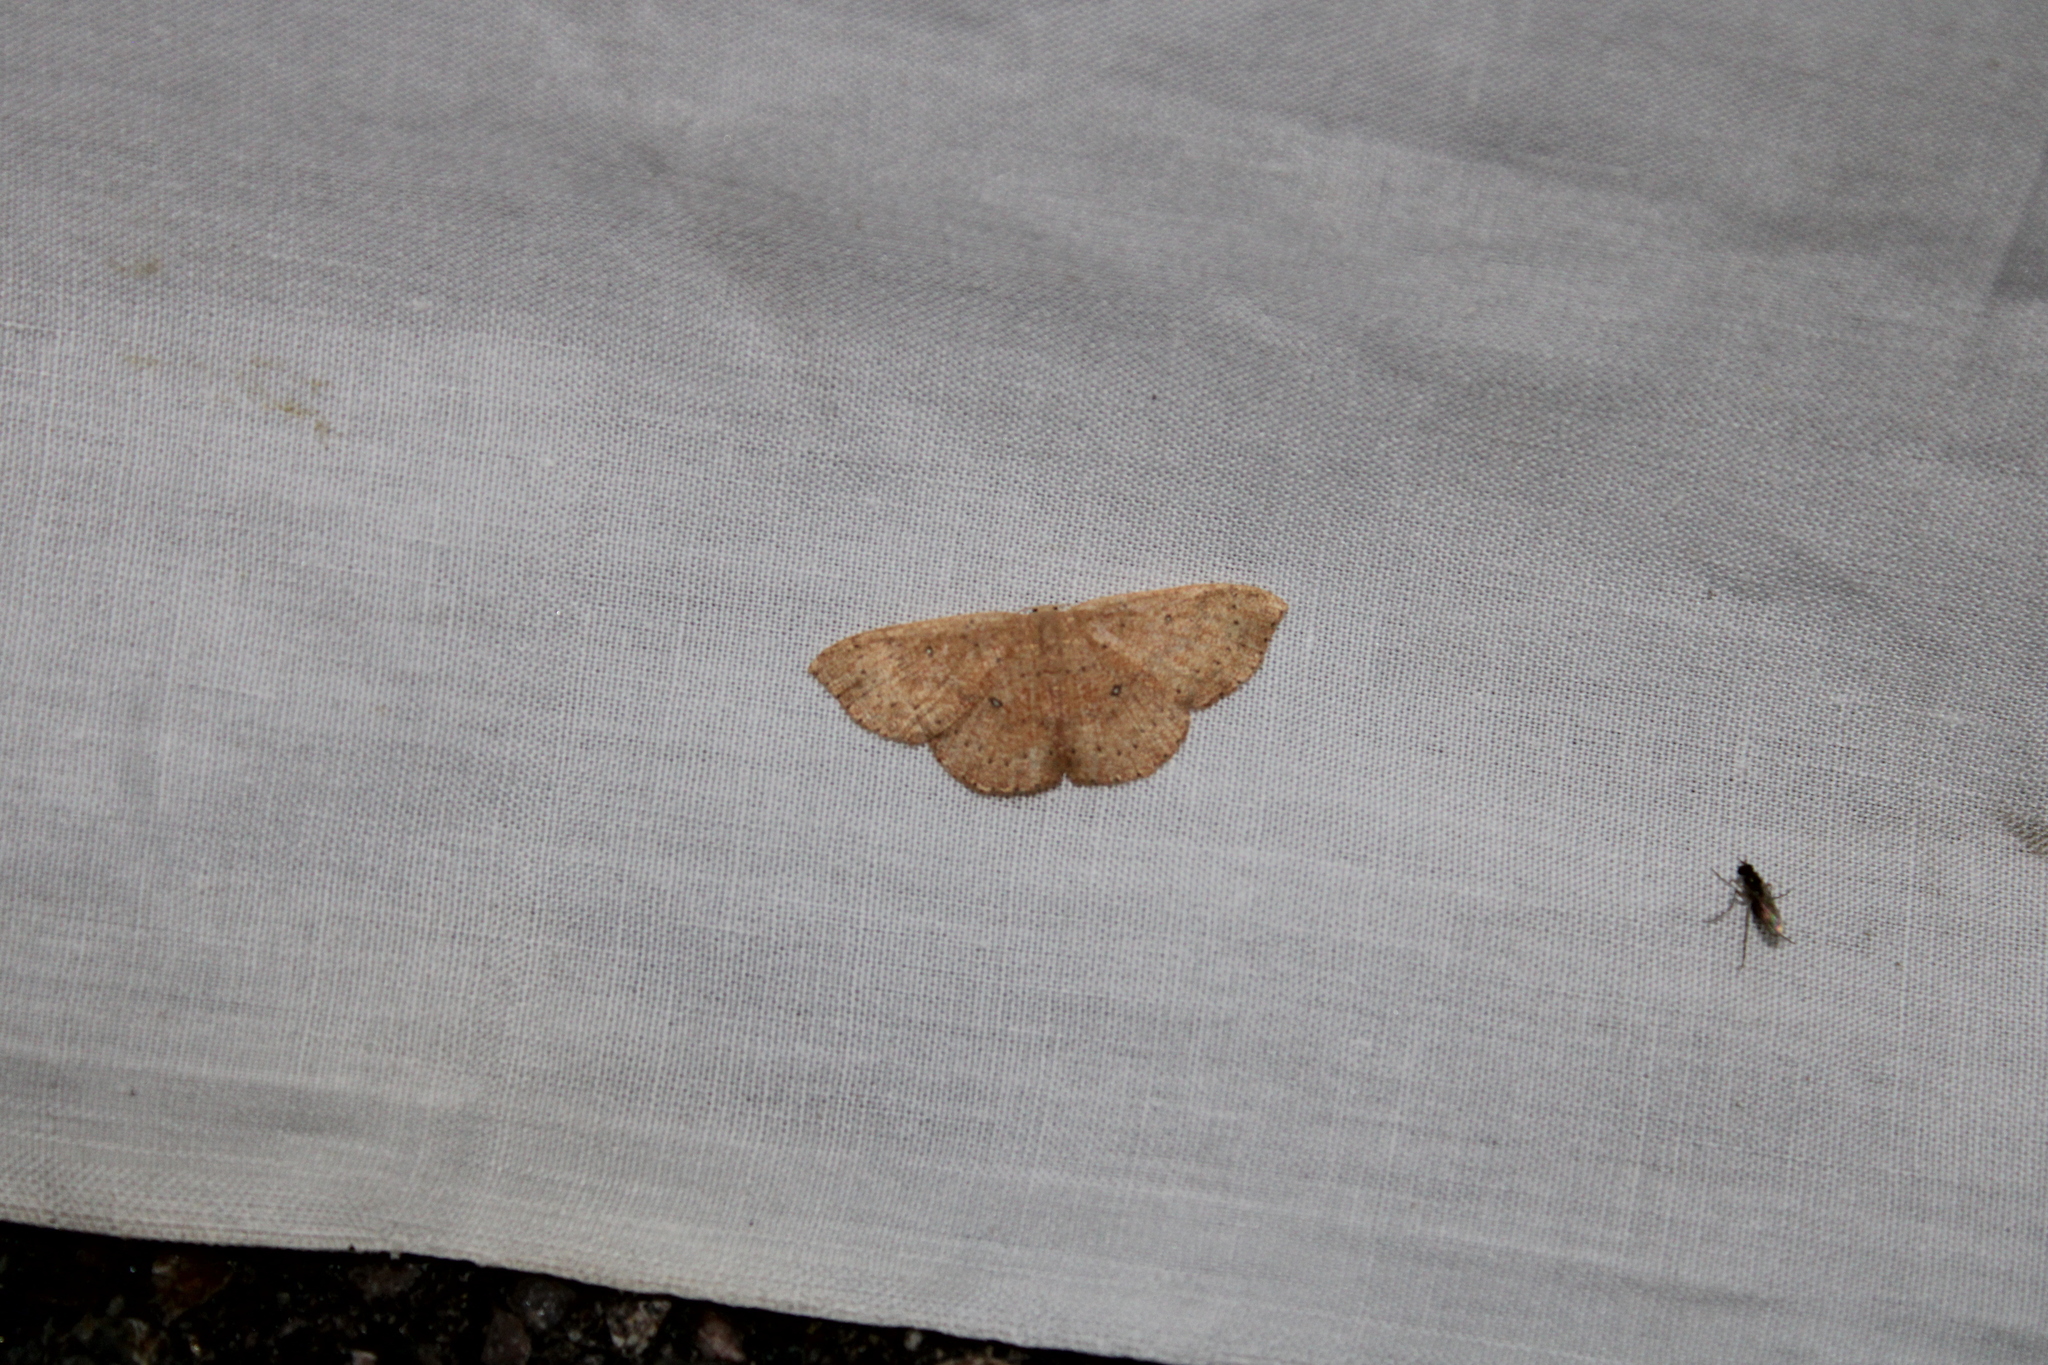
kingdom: Animalia
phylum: Arthropoda
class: Insecta
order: Lepidoptera
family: Geometridae
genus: Cyclophora
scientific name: Cyclophora packardi
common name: Packard's wave
